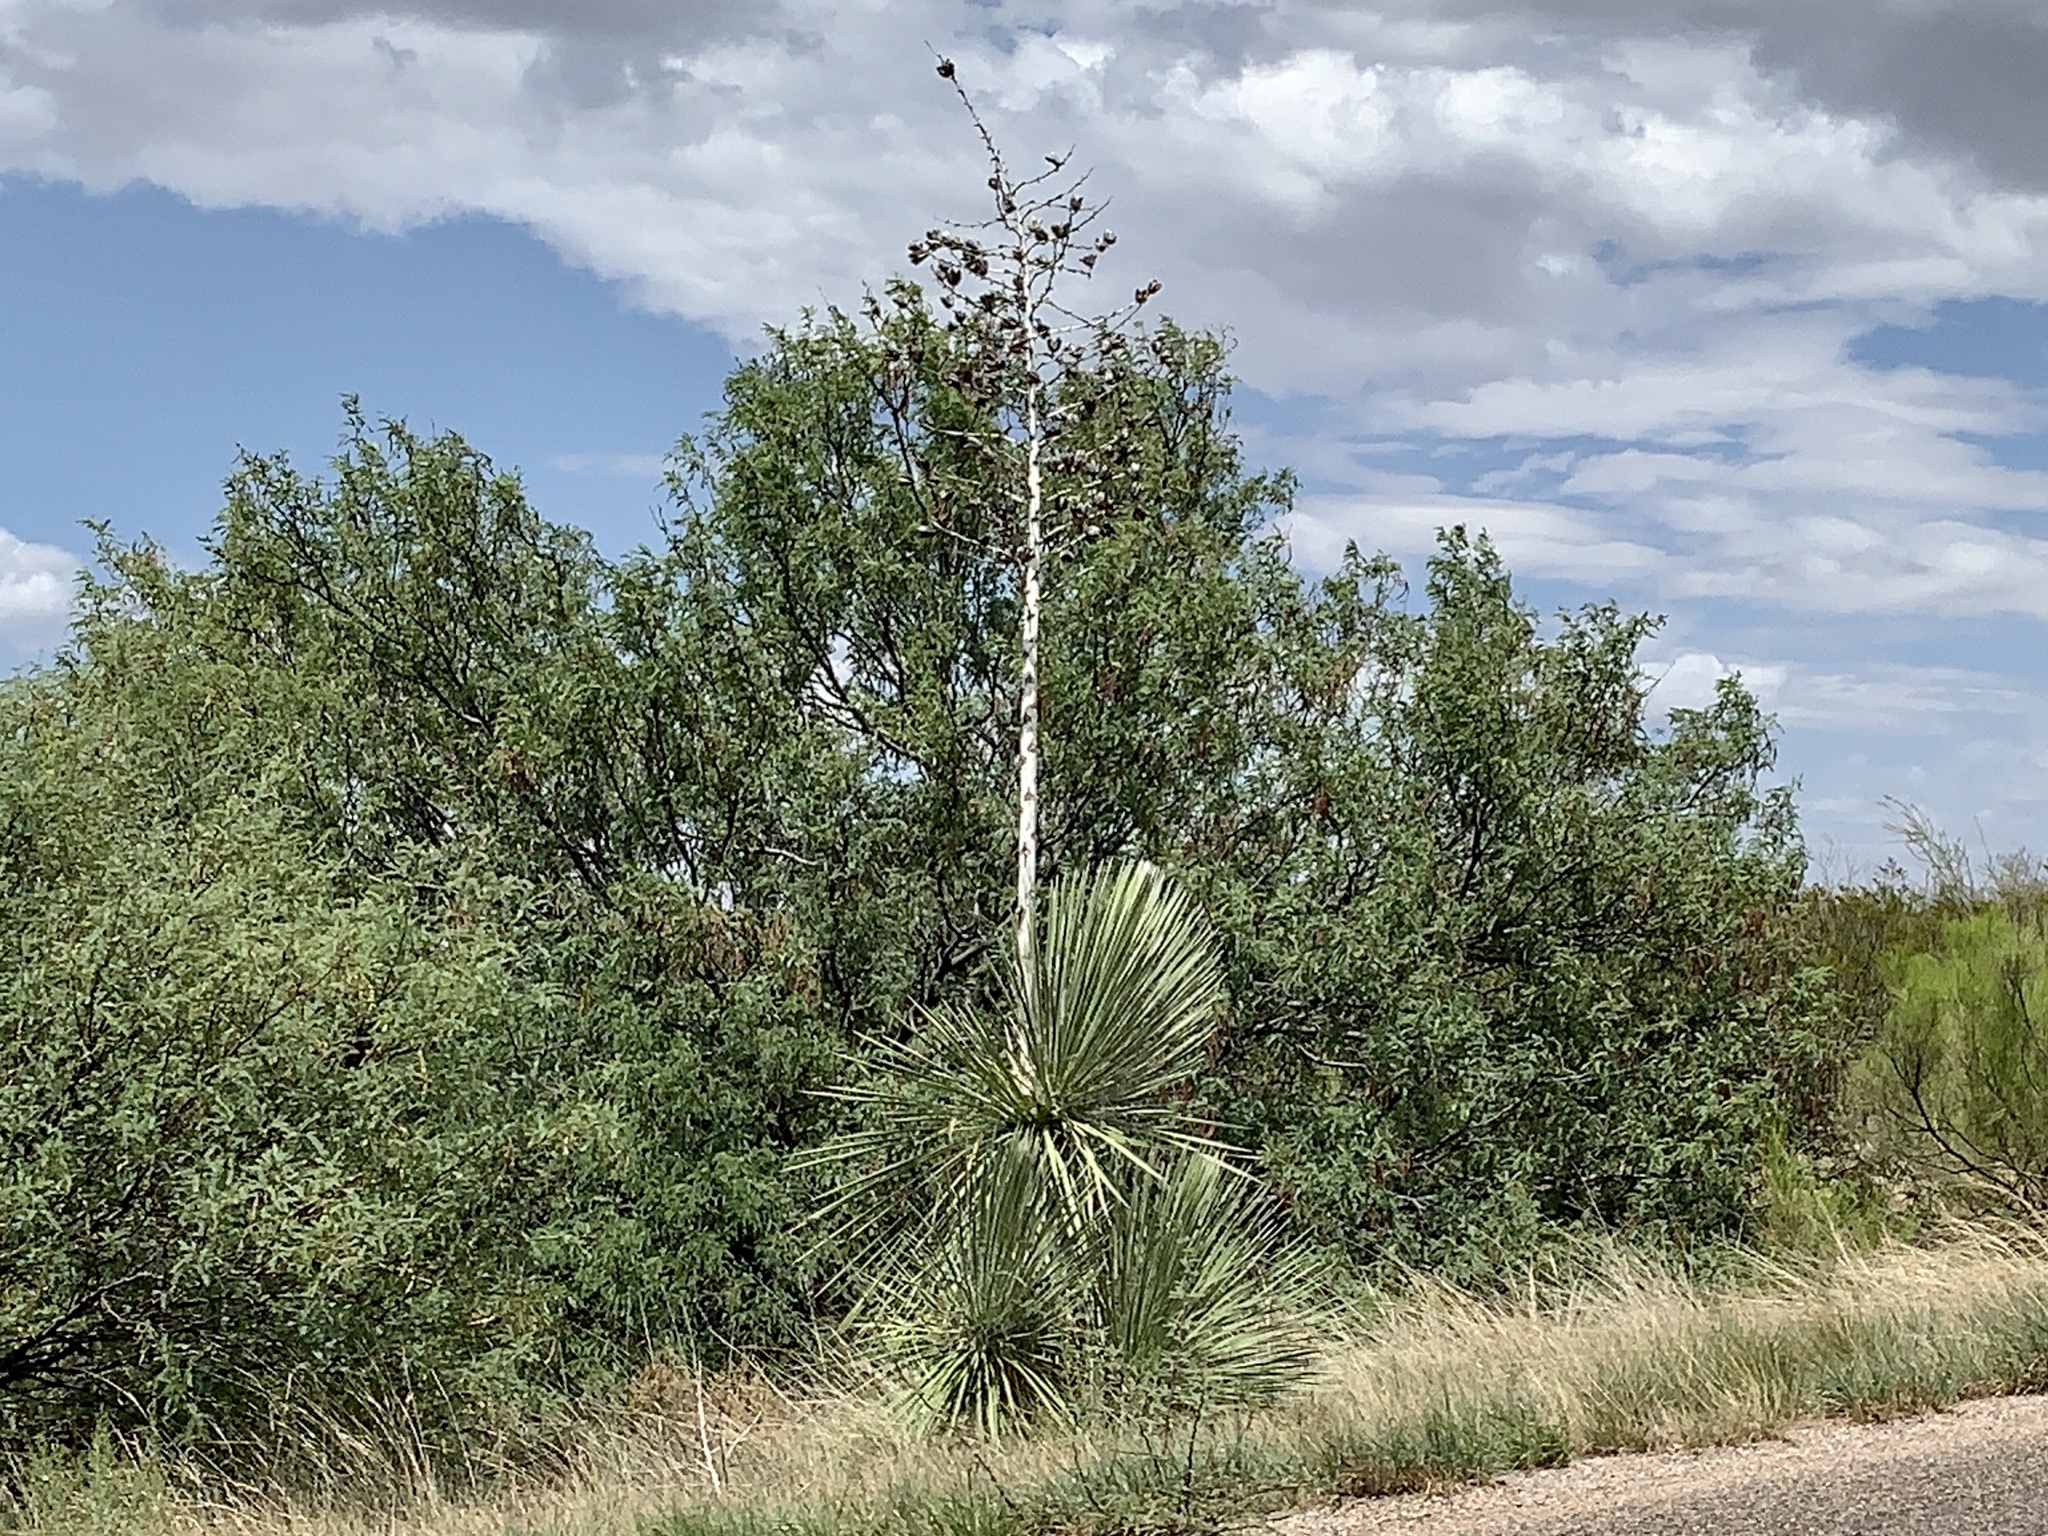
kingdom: Plantae
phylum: Tracheophyta
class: Liliopsida
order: Asparagales
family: Asparagaceae
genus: Yucca
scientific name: Yucca elata
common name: Palmella
